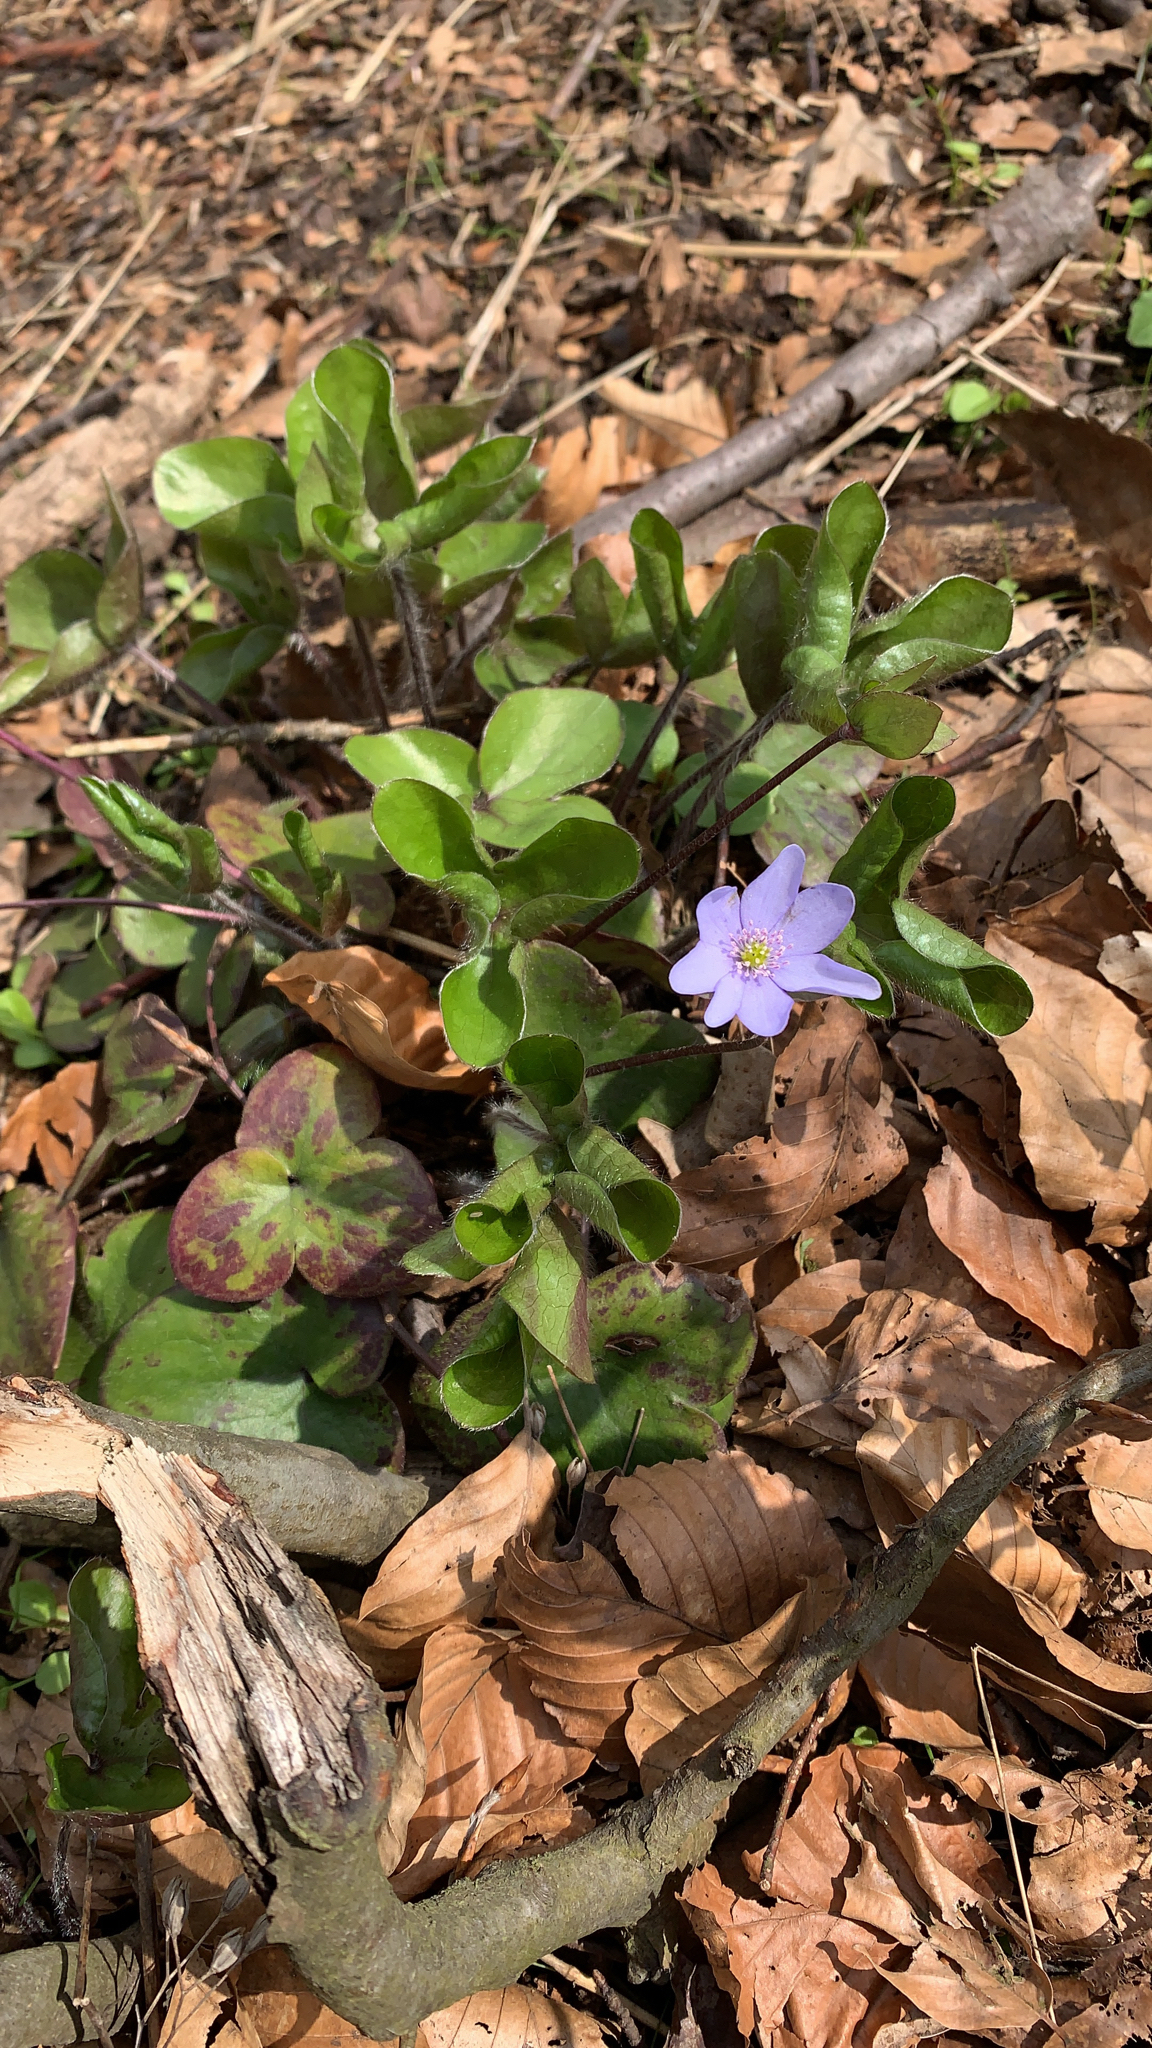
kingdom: Plantae
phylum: Tracheophyta
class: Magnoliopsida
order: Ranunculales
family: Ranunculaceae
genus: Hepatica
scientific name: Hepatica nobilis
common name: Liverleaf
